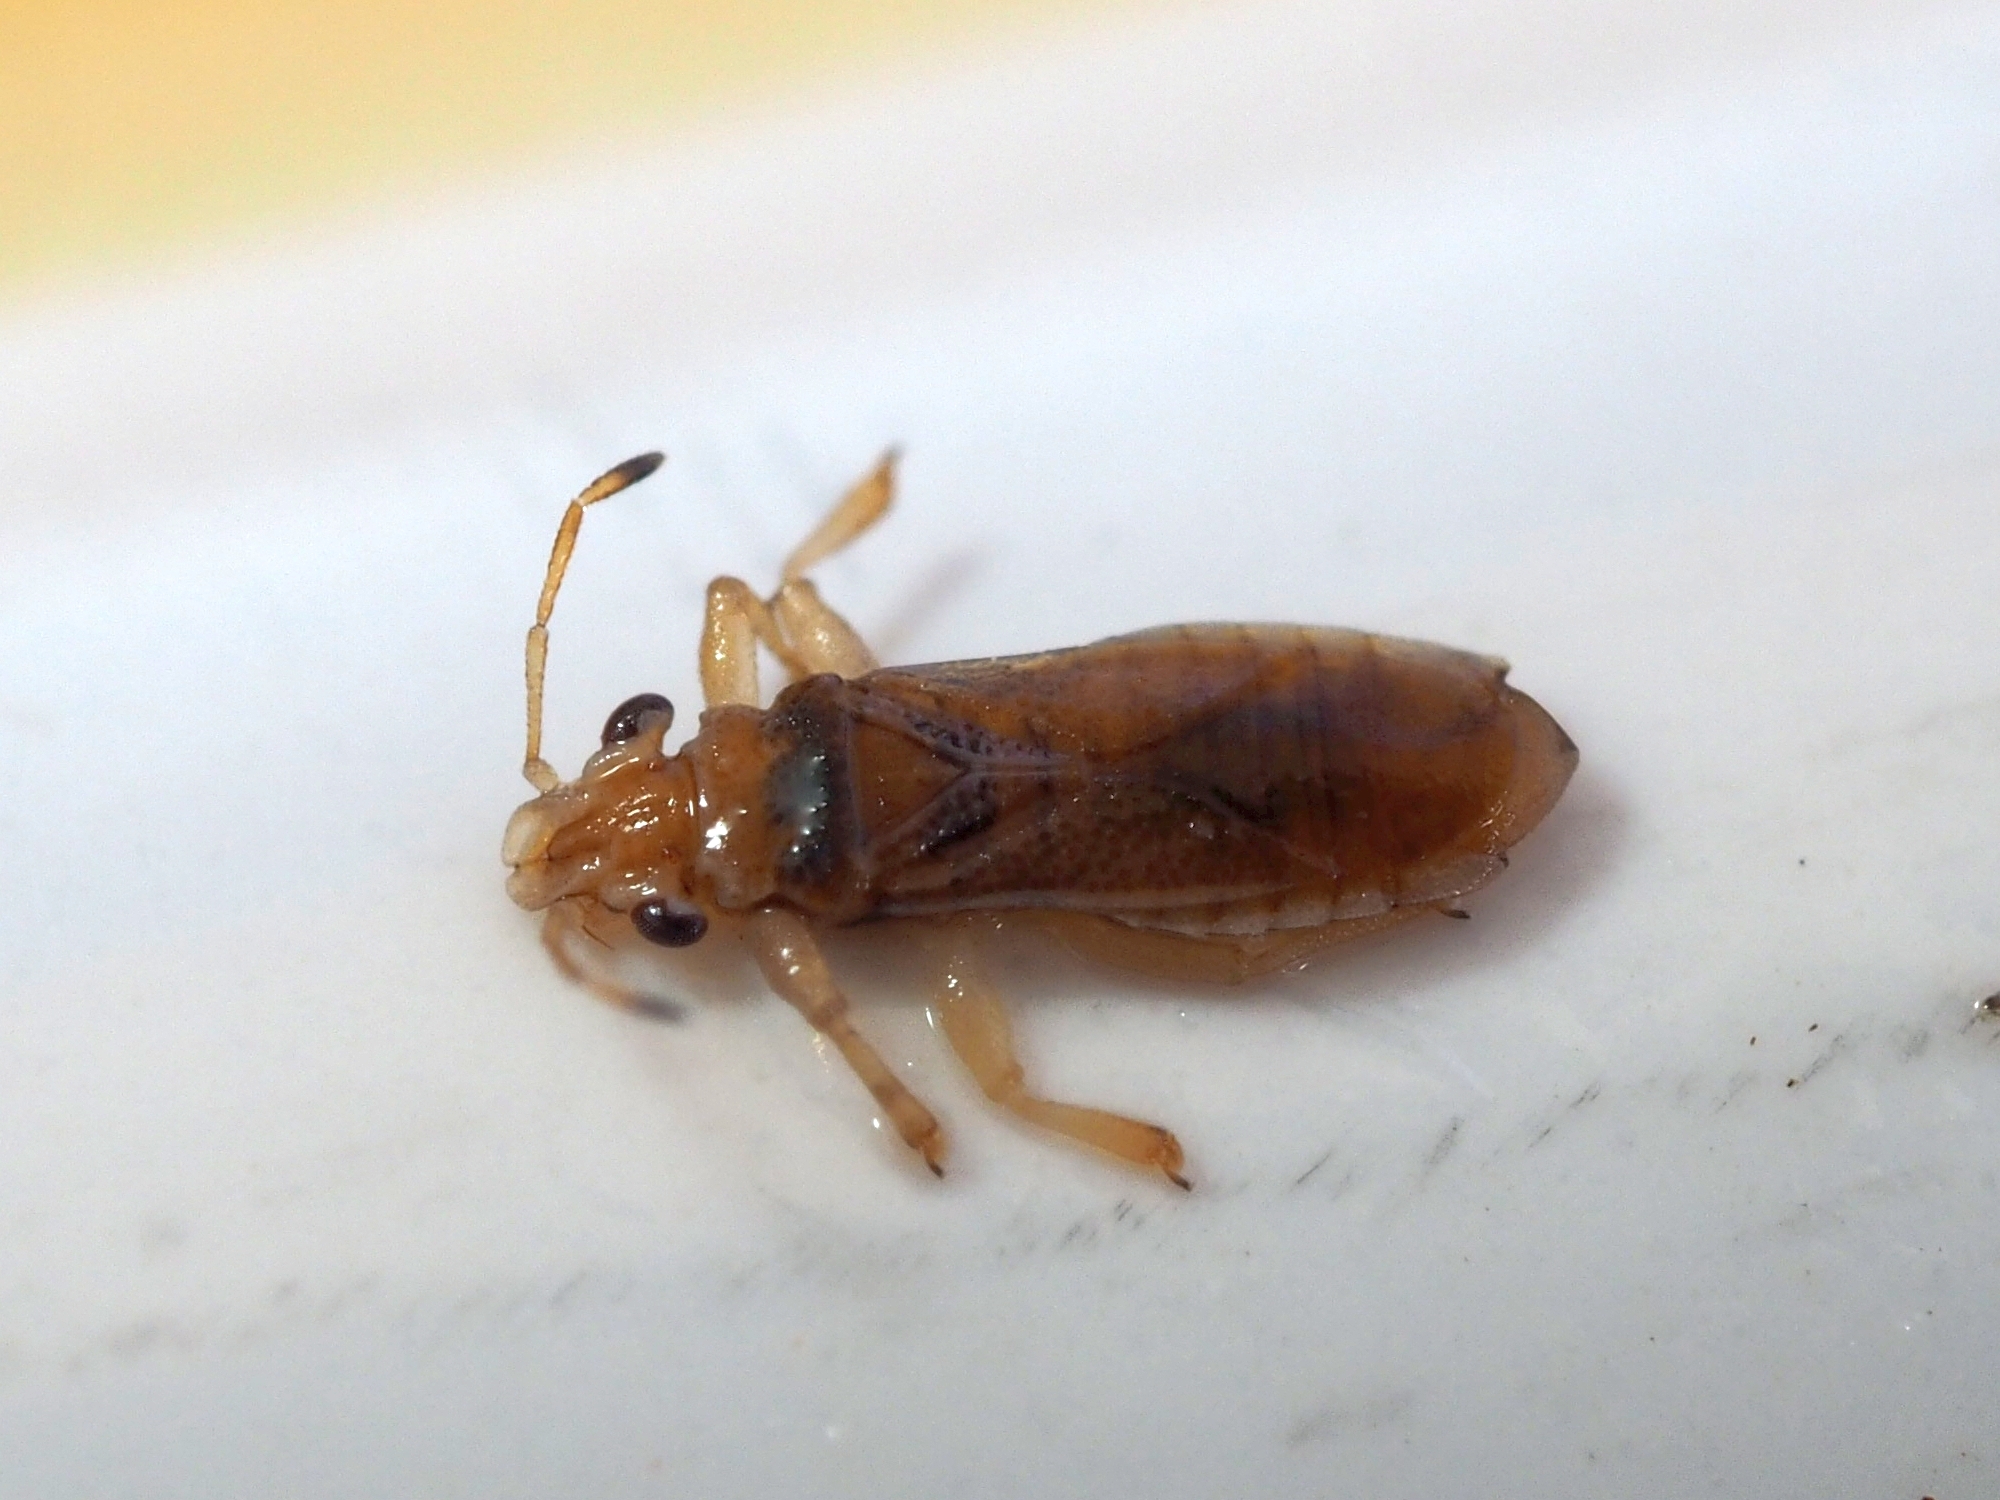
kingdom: Animalia
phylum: Arthropoda
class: Insecta
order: Hemiptera
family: Thaumastocoridae
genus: Thaumastocoris
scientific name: Thaumastocoris peregrinus
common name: Bronze bug
